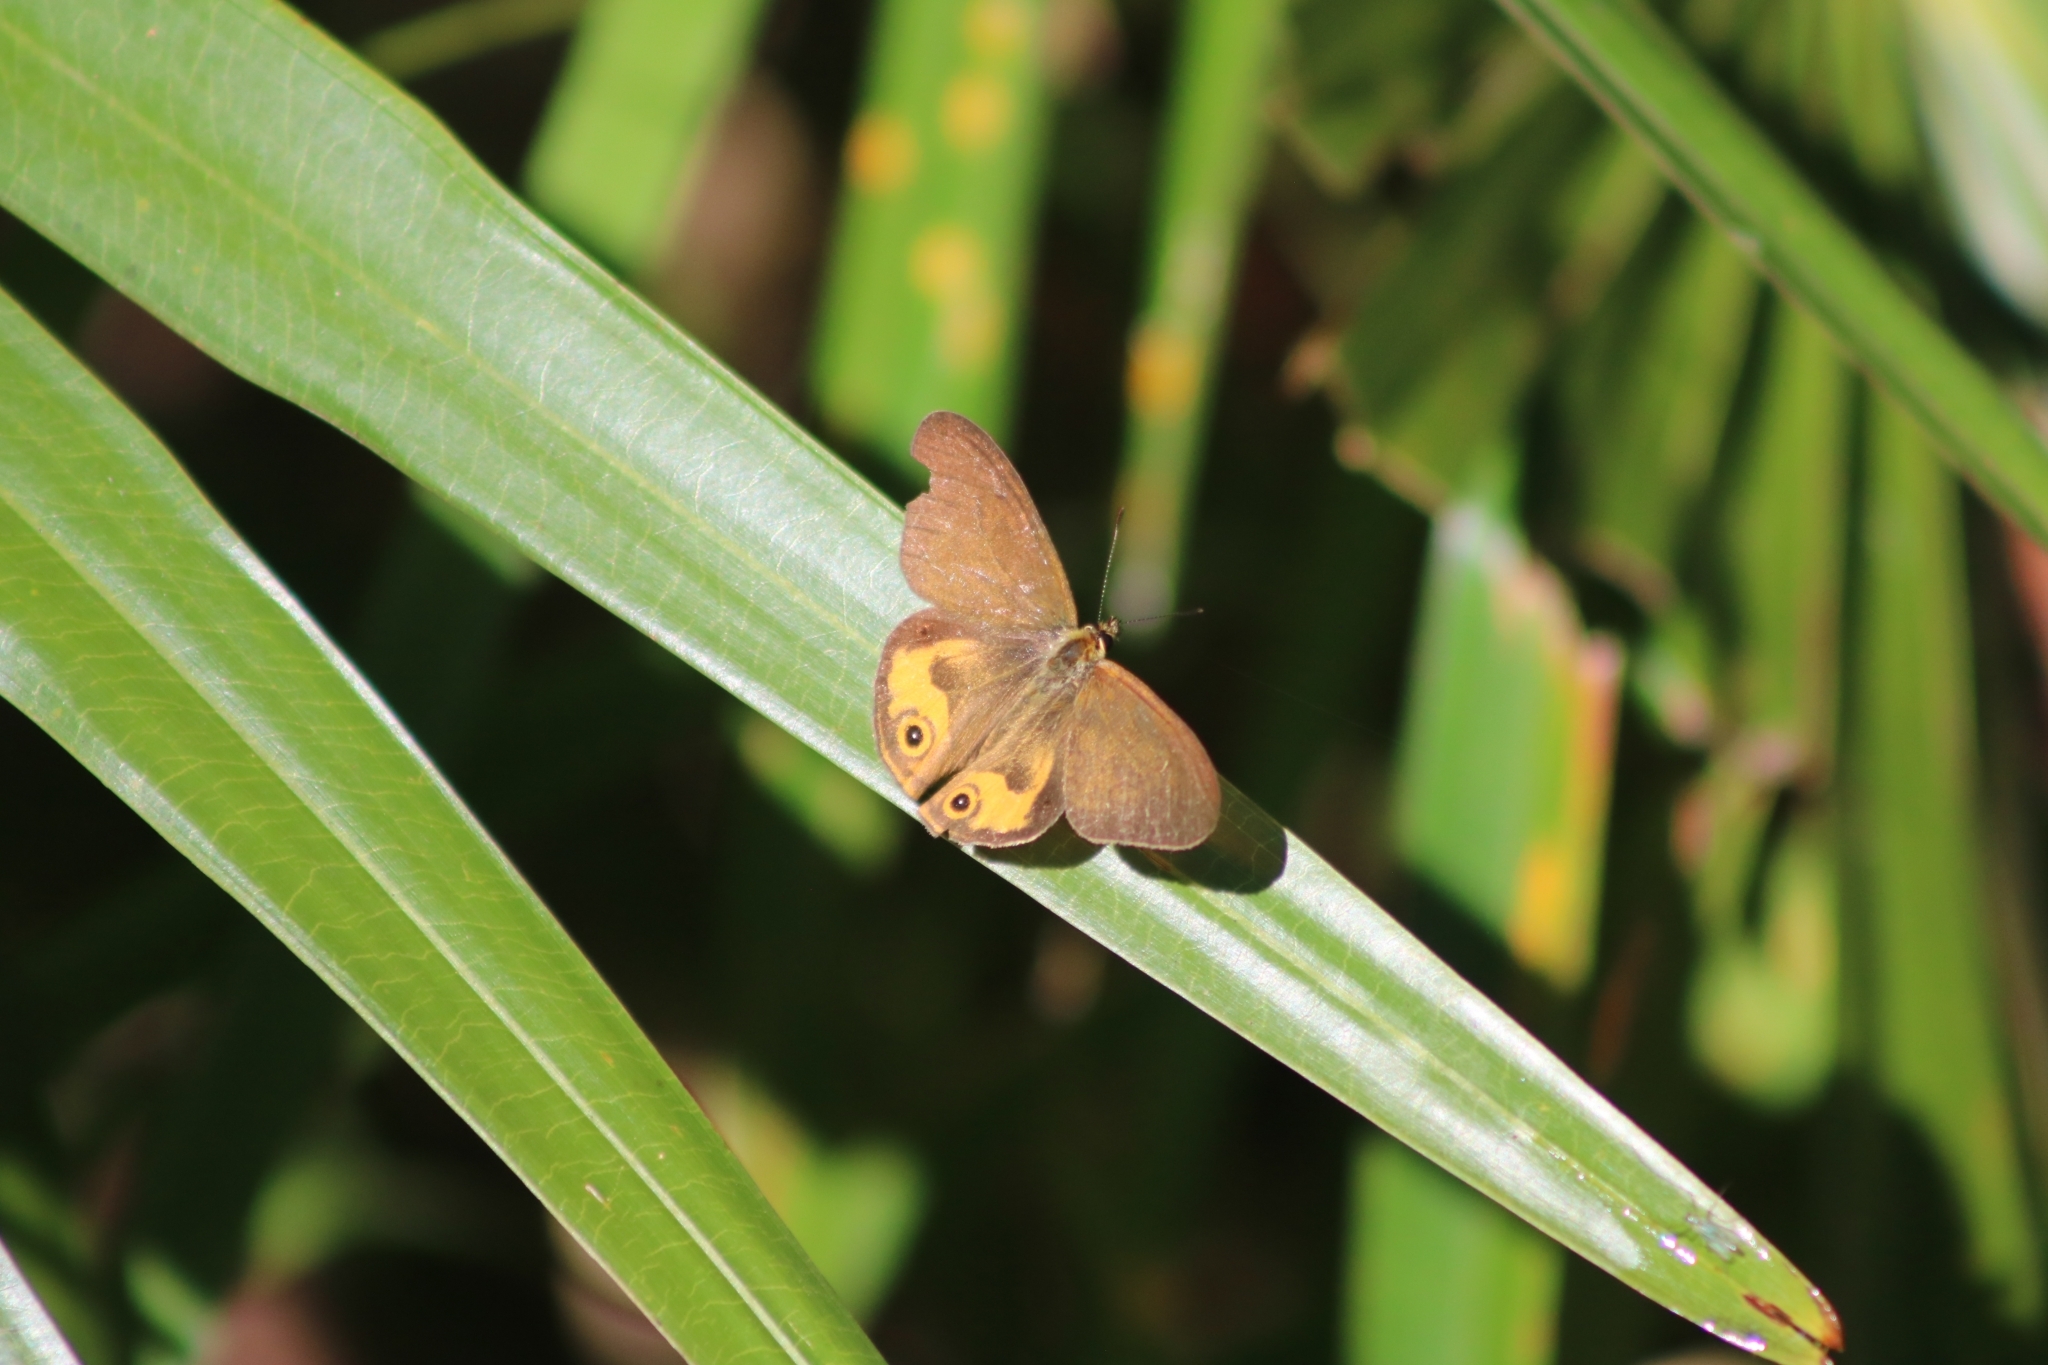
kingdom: Animalia
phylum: Arthropoda
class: Insecta
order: Lepidoptera
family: Nymphalidae
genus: Hypocysta
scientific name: Hypocysta metirius
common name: Brown ringlet
